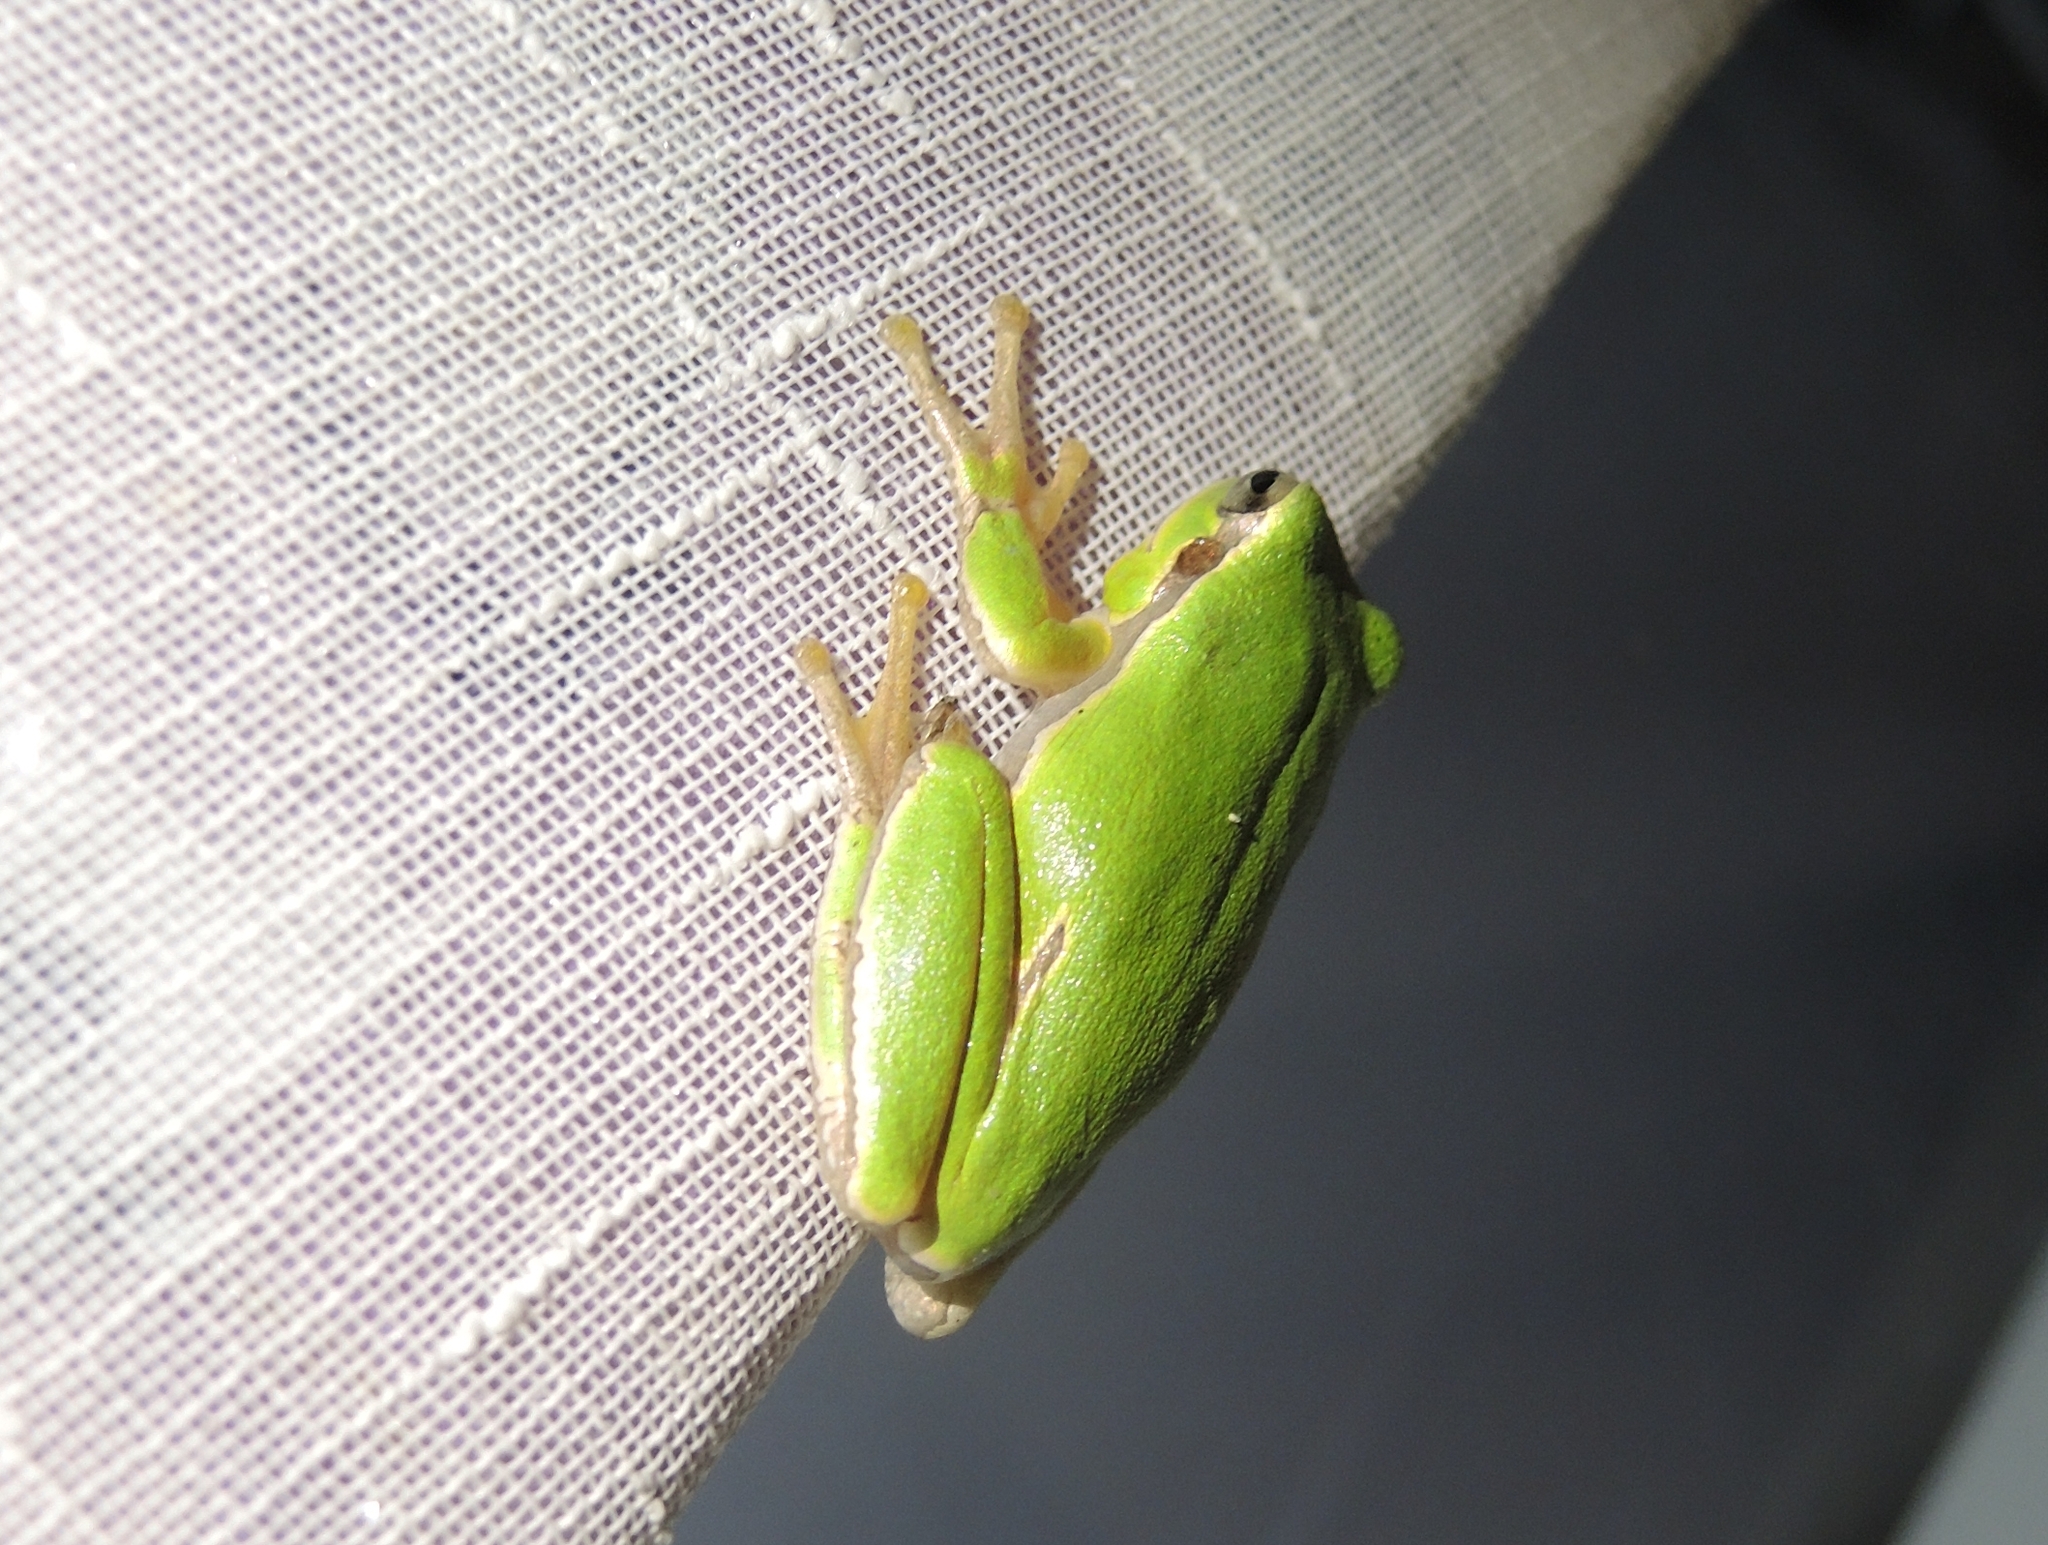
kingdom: Animalia
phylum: Chordata
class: Amphibia
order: Anura
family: Hylidae
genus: Hyla
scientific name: Hyla orientalis
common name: Caucasian treefrog
